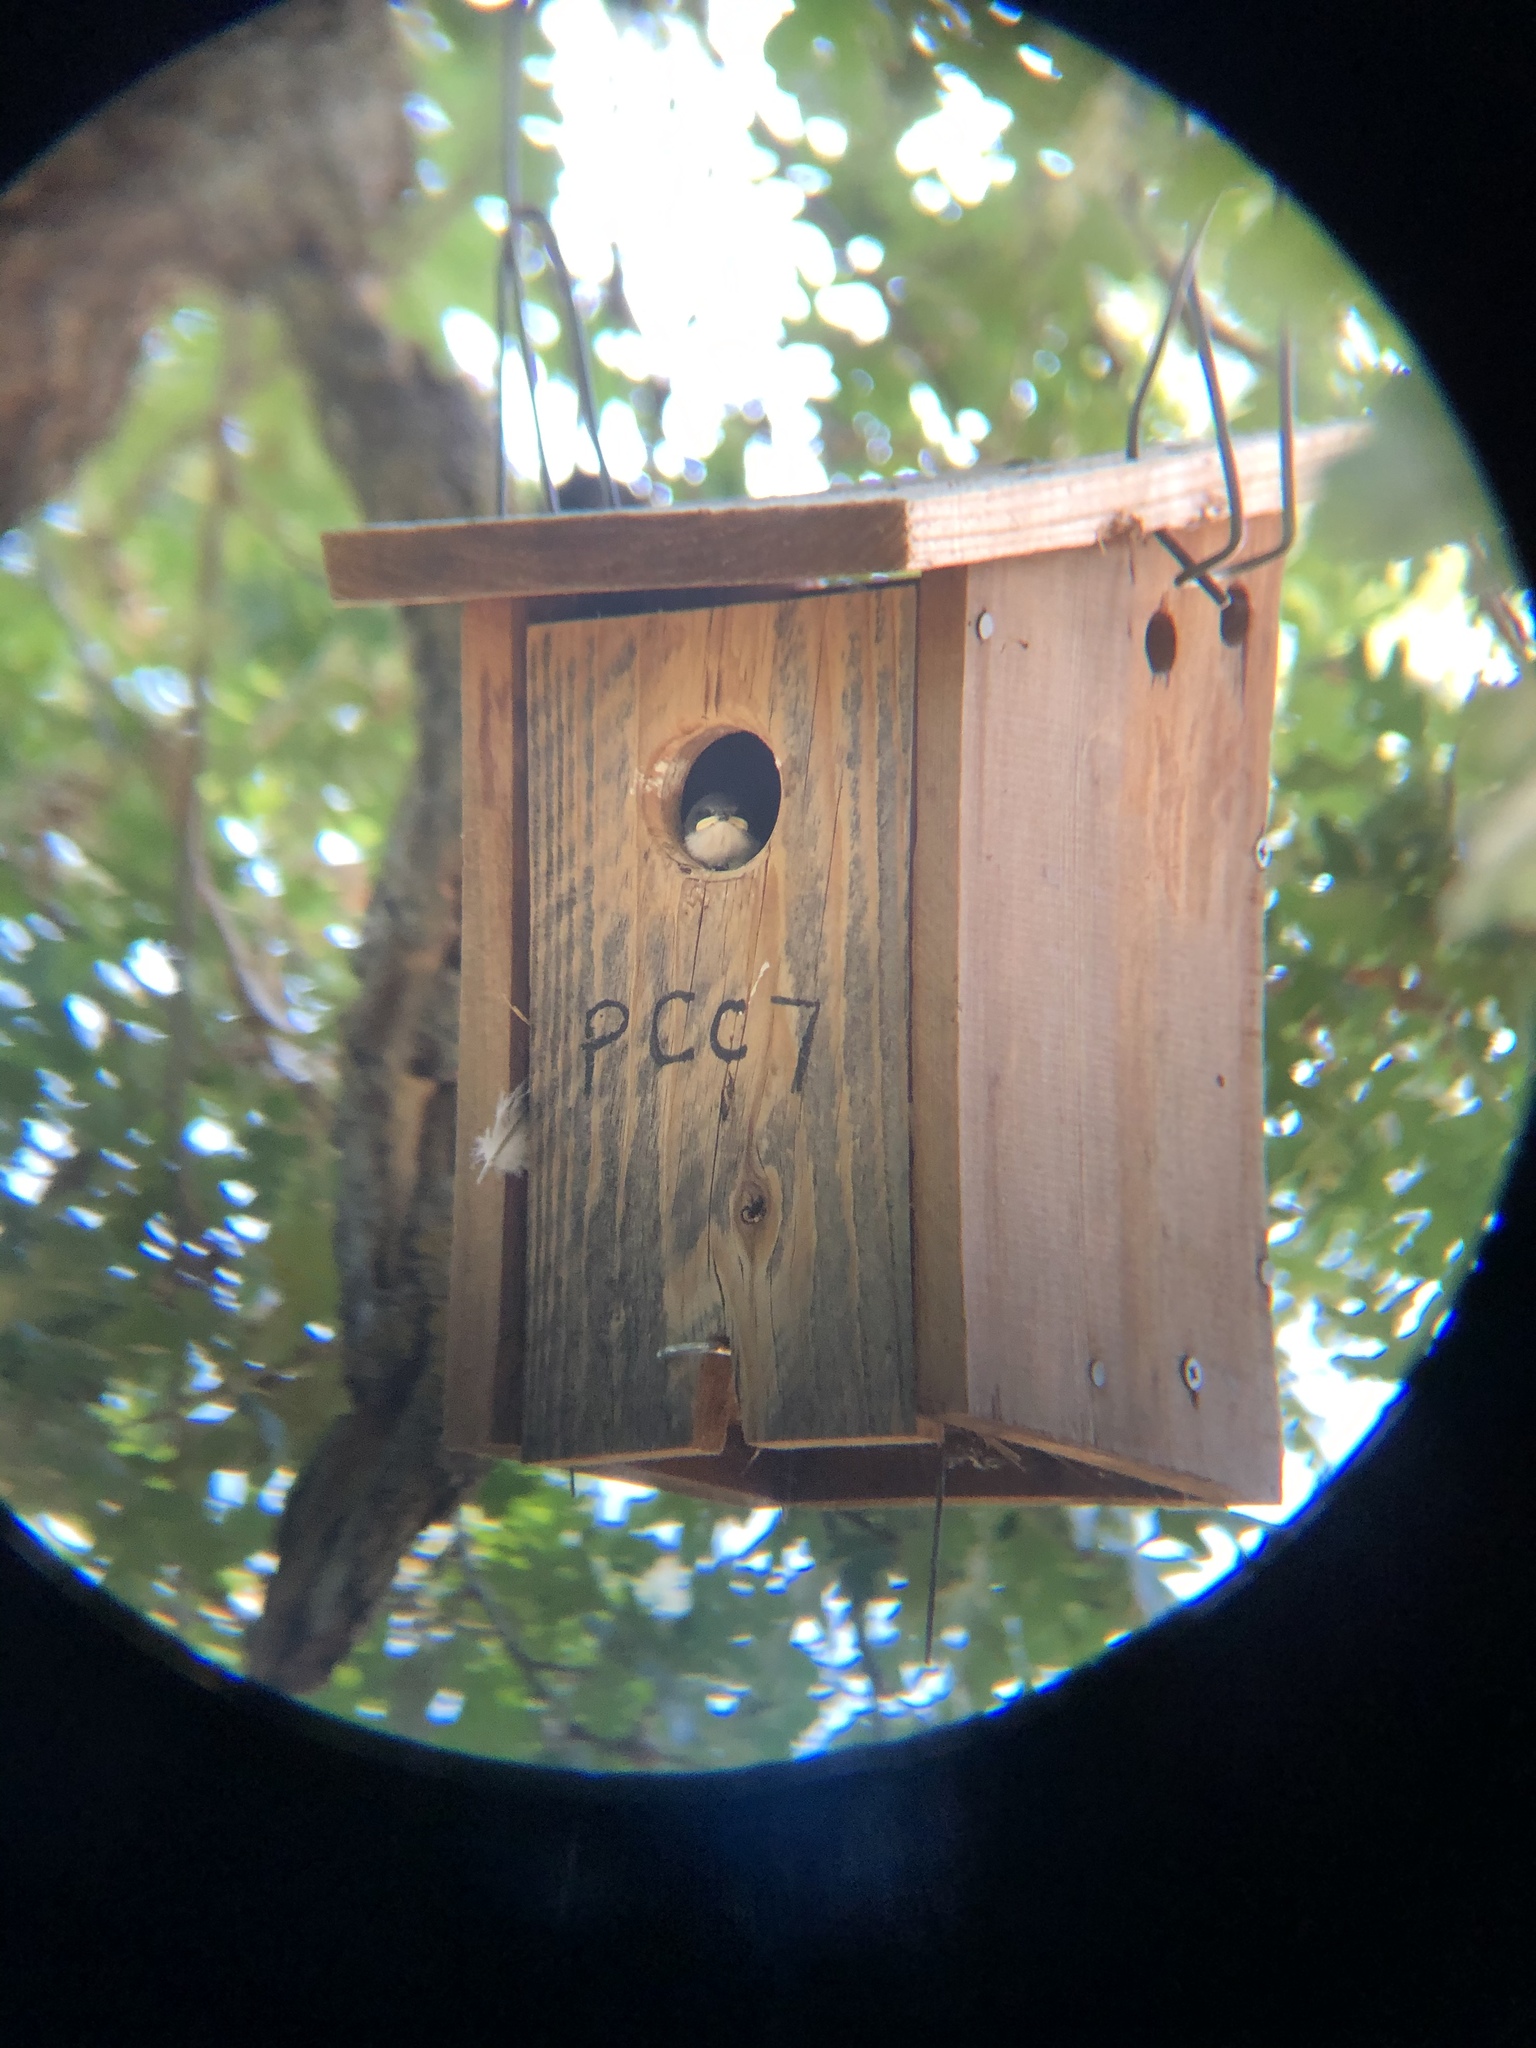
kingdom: Animalia
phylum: Chordata
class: Aves
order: Passeriformes
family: Hirundinidae
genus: Tachycineta
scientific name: Tachycineta bicolor
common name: Tree swallow
